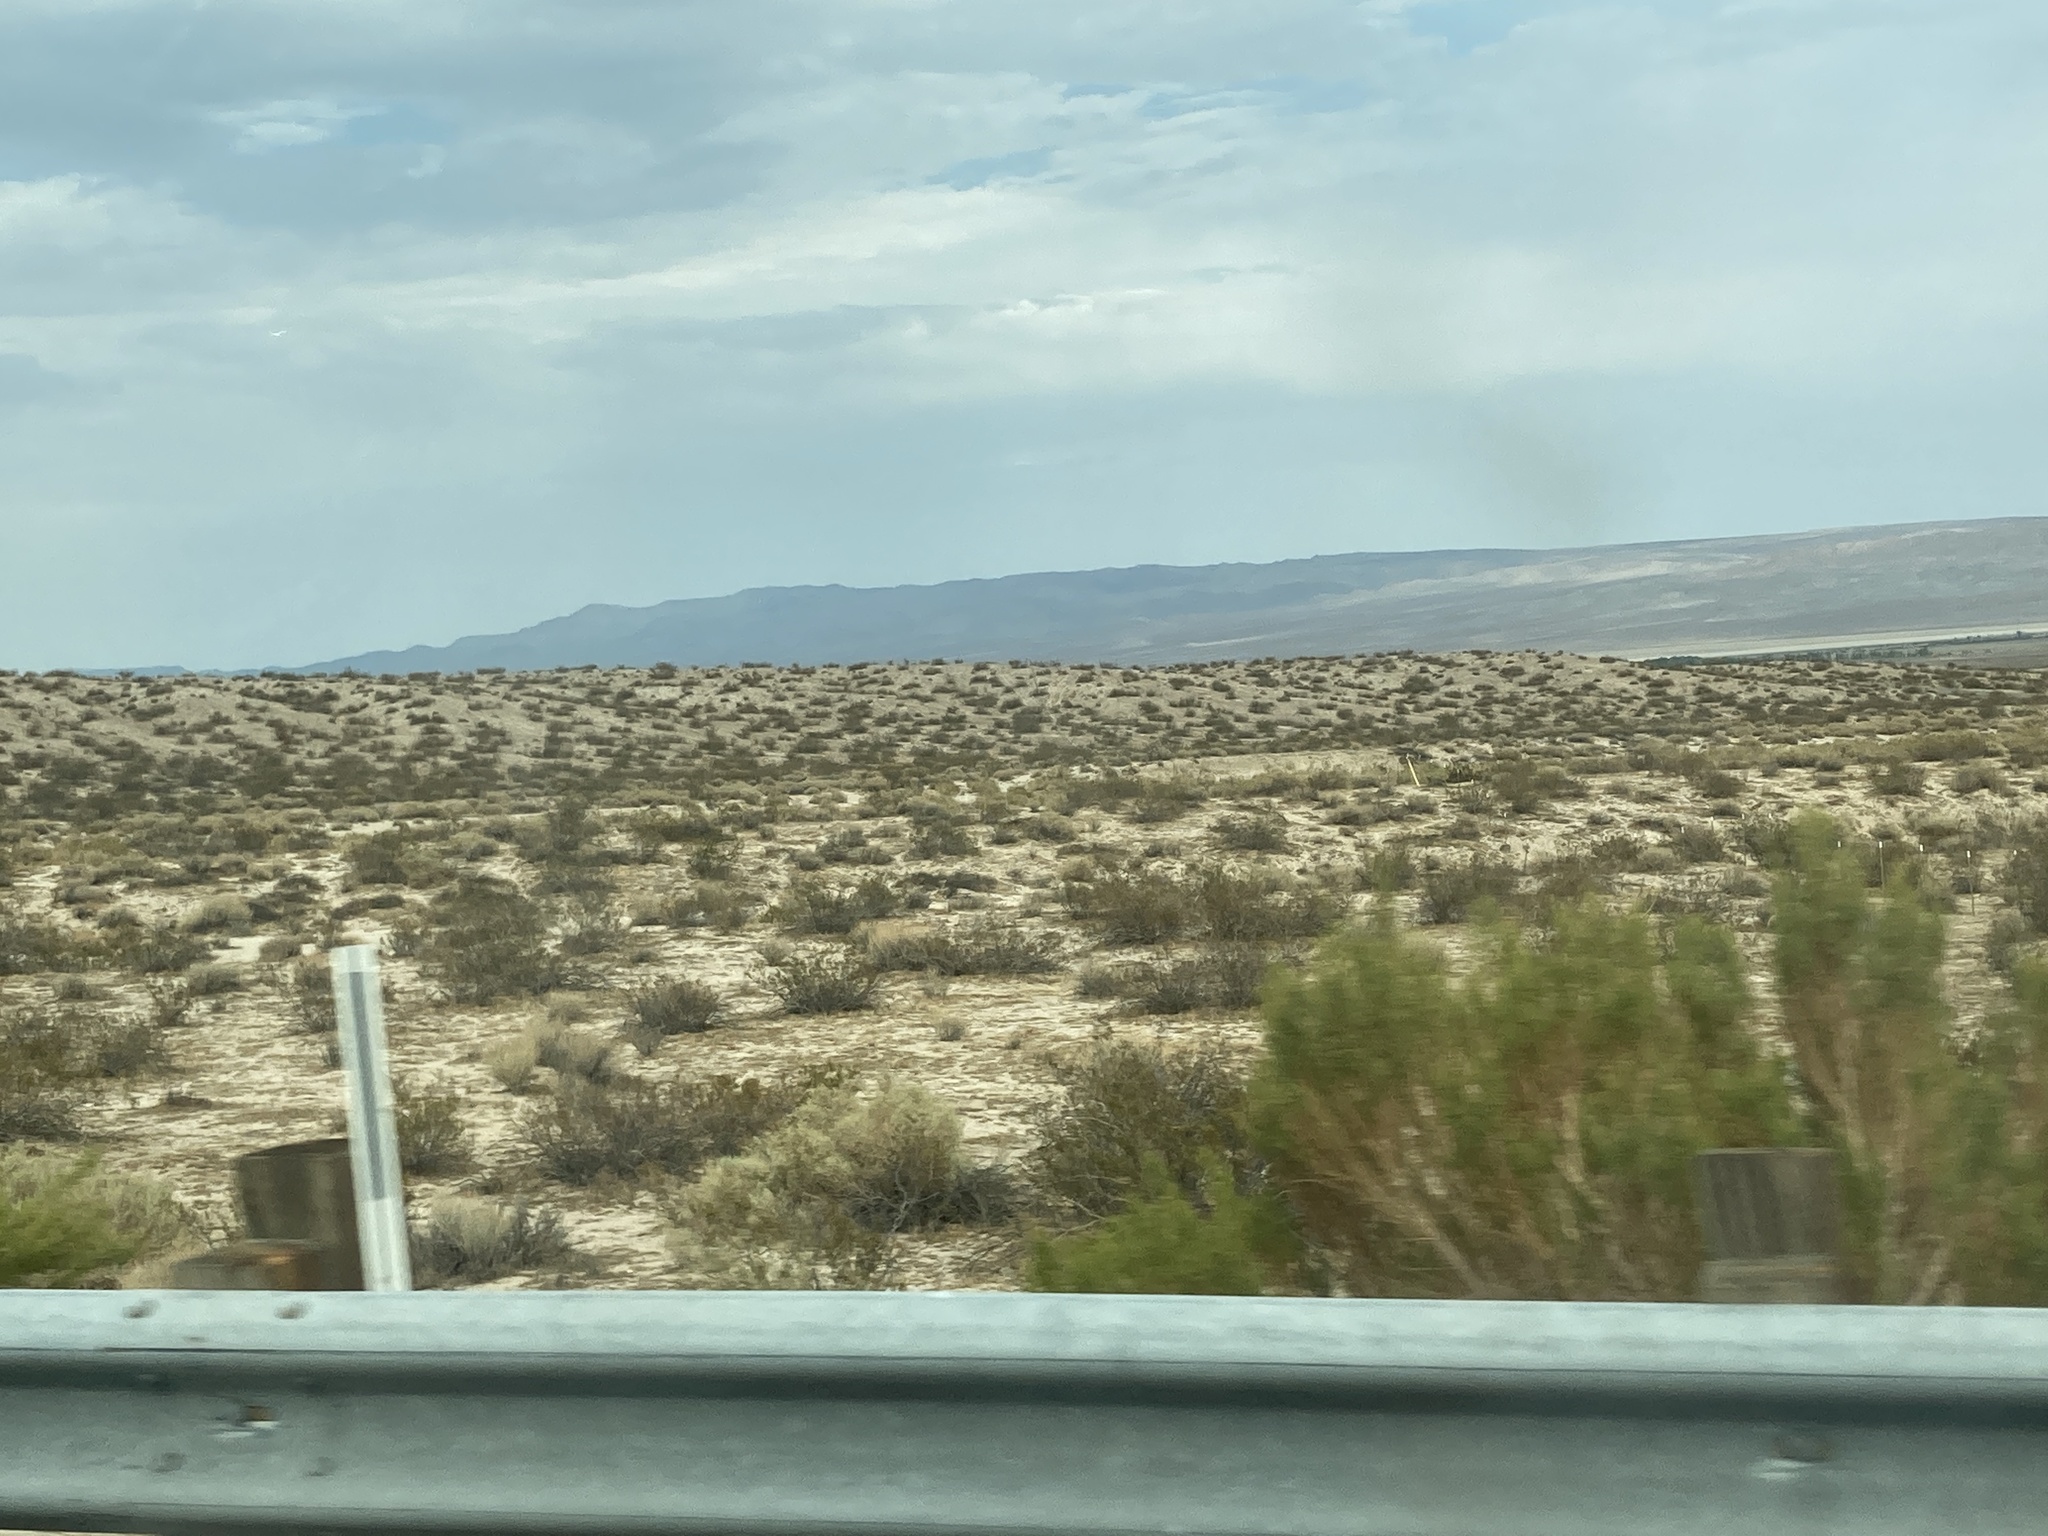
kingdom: Plantae
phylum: Tracheophyta
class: Magnoliopsida
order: Zygophyllales
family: Zygophyllaceae
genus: Larrea
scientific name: Larrea tridentata
